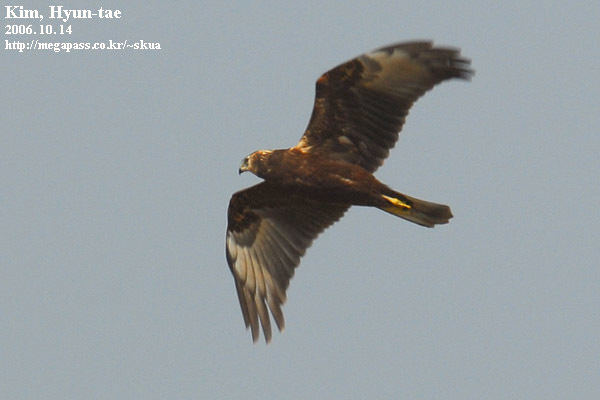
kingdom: Animalia
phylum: Chordata
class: Aves
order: Accipitriformes
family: Accipitridae
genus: Circus
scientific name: Circus spilonotus
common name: Eastern marsh-harrier
